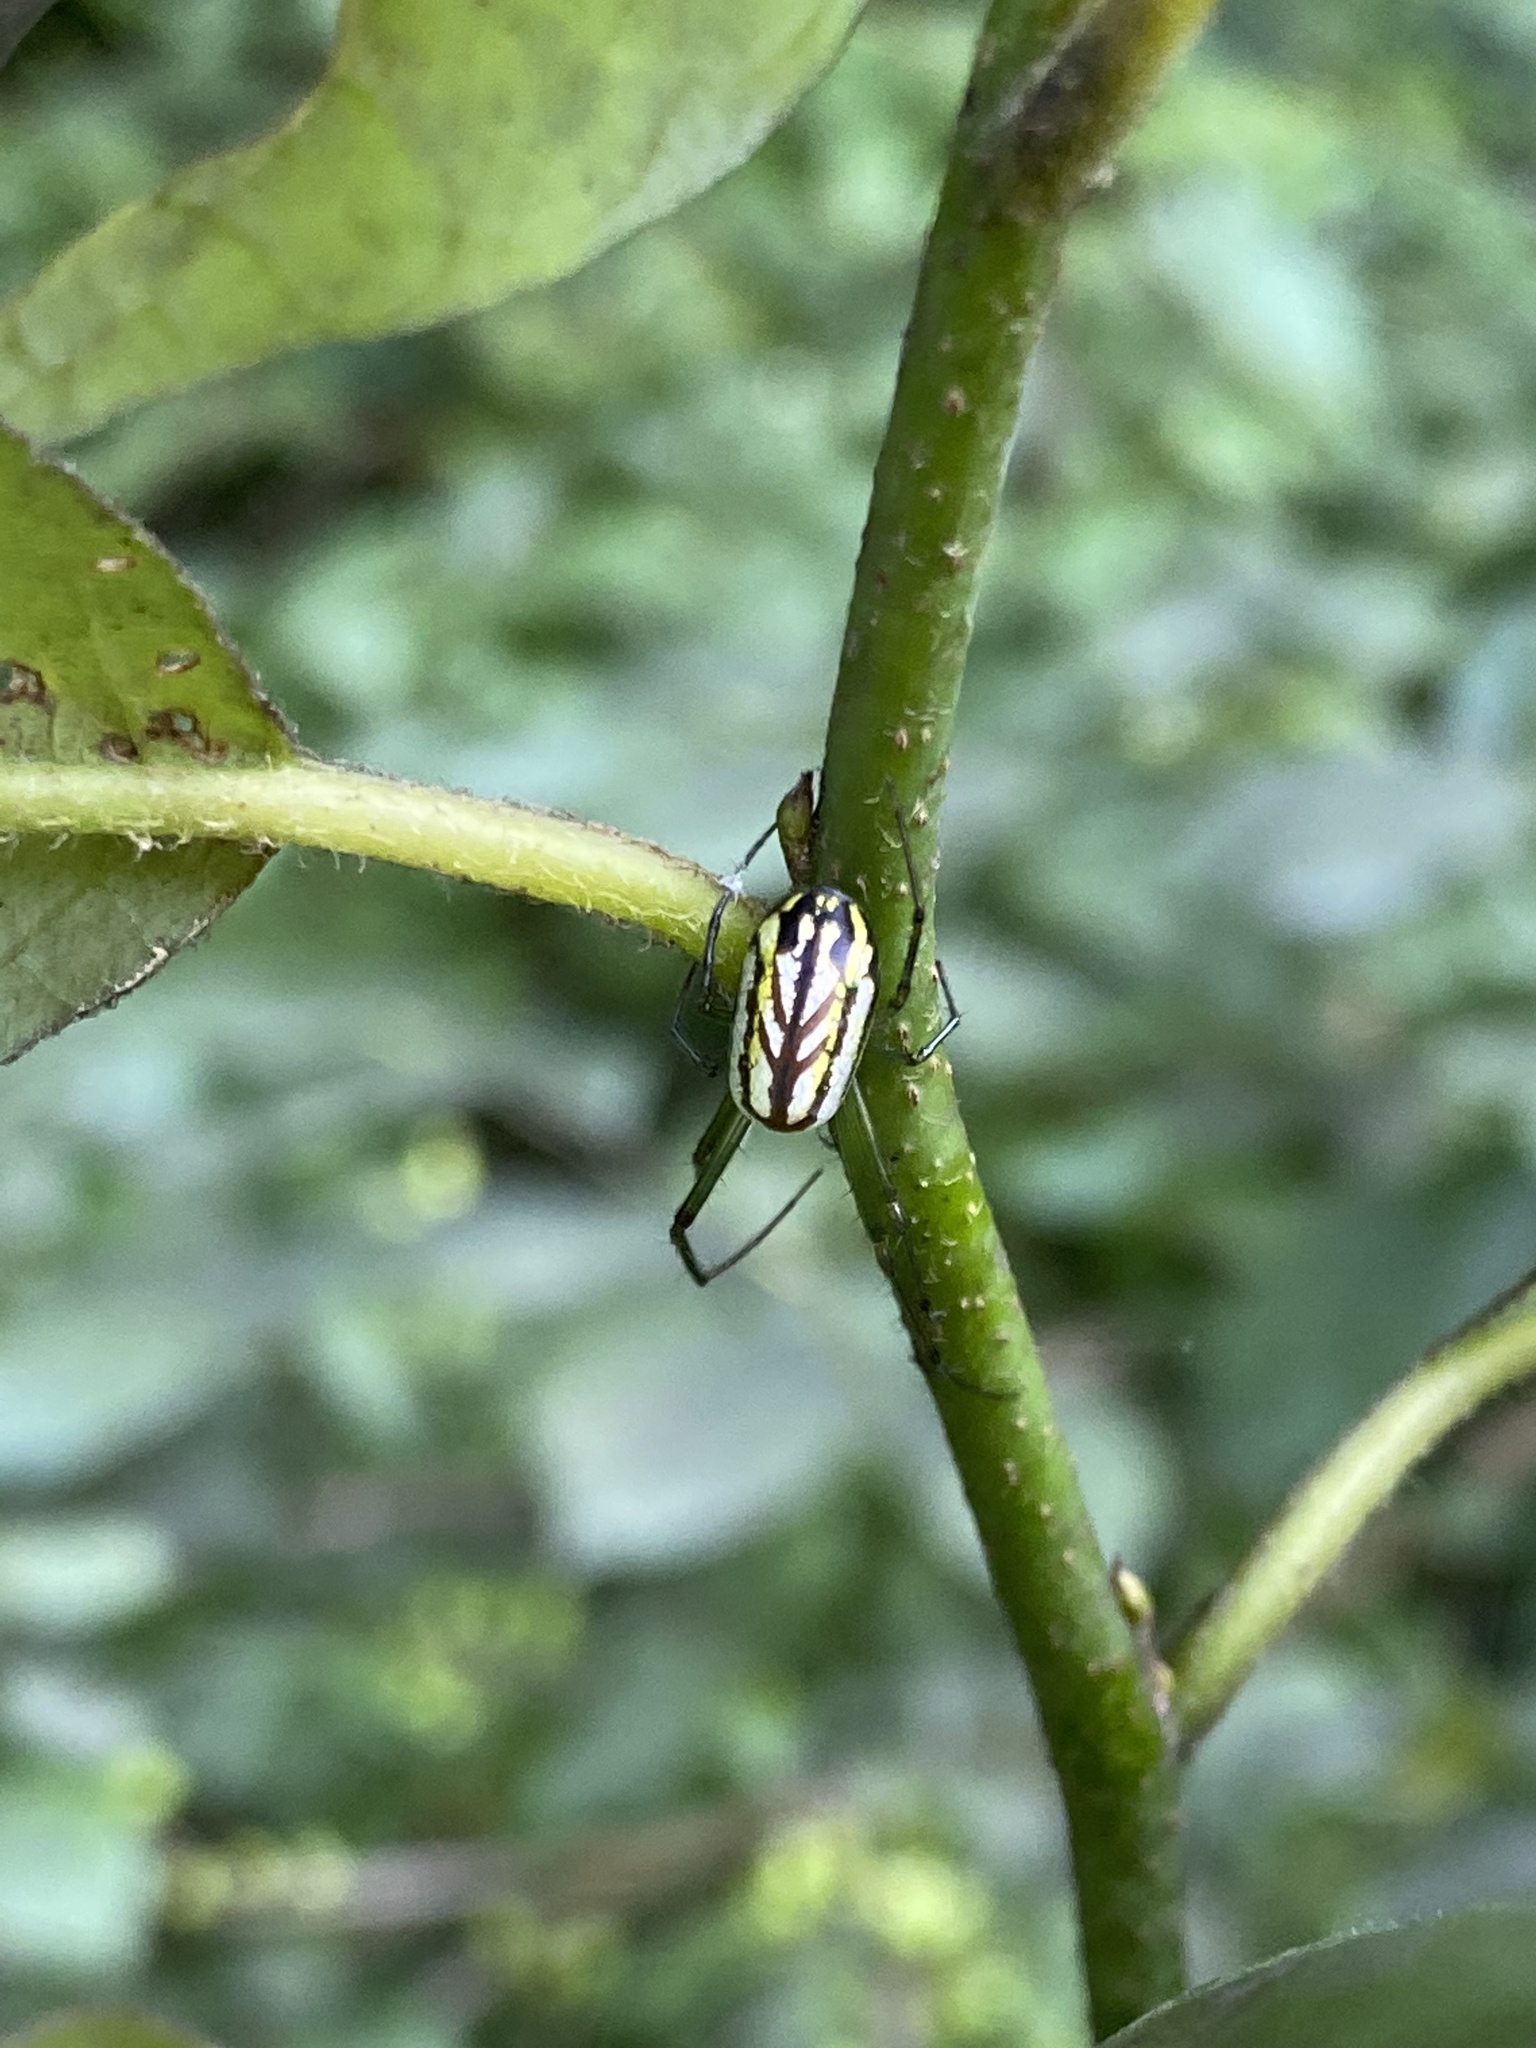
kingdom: Animalia
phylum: Arthropoda
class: Arachnida
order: Araneae
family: Tetragnathidae
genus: Leucauge
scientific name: Leucauge venusta
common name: Longjawed orb weavers
